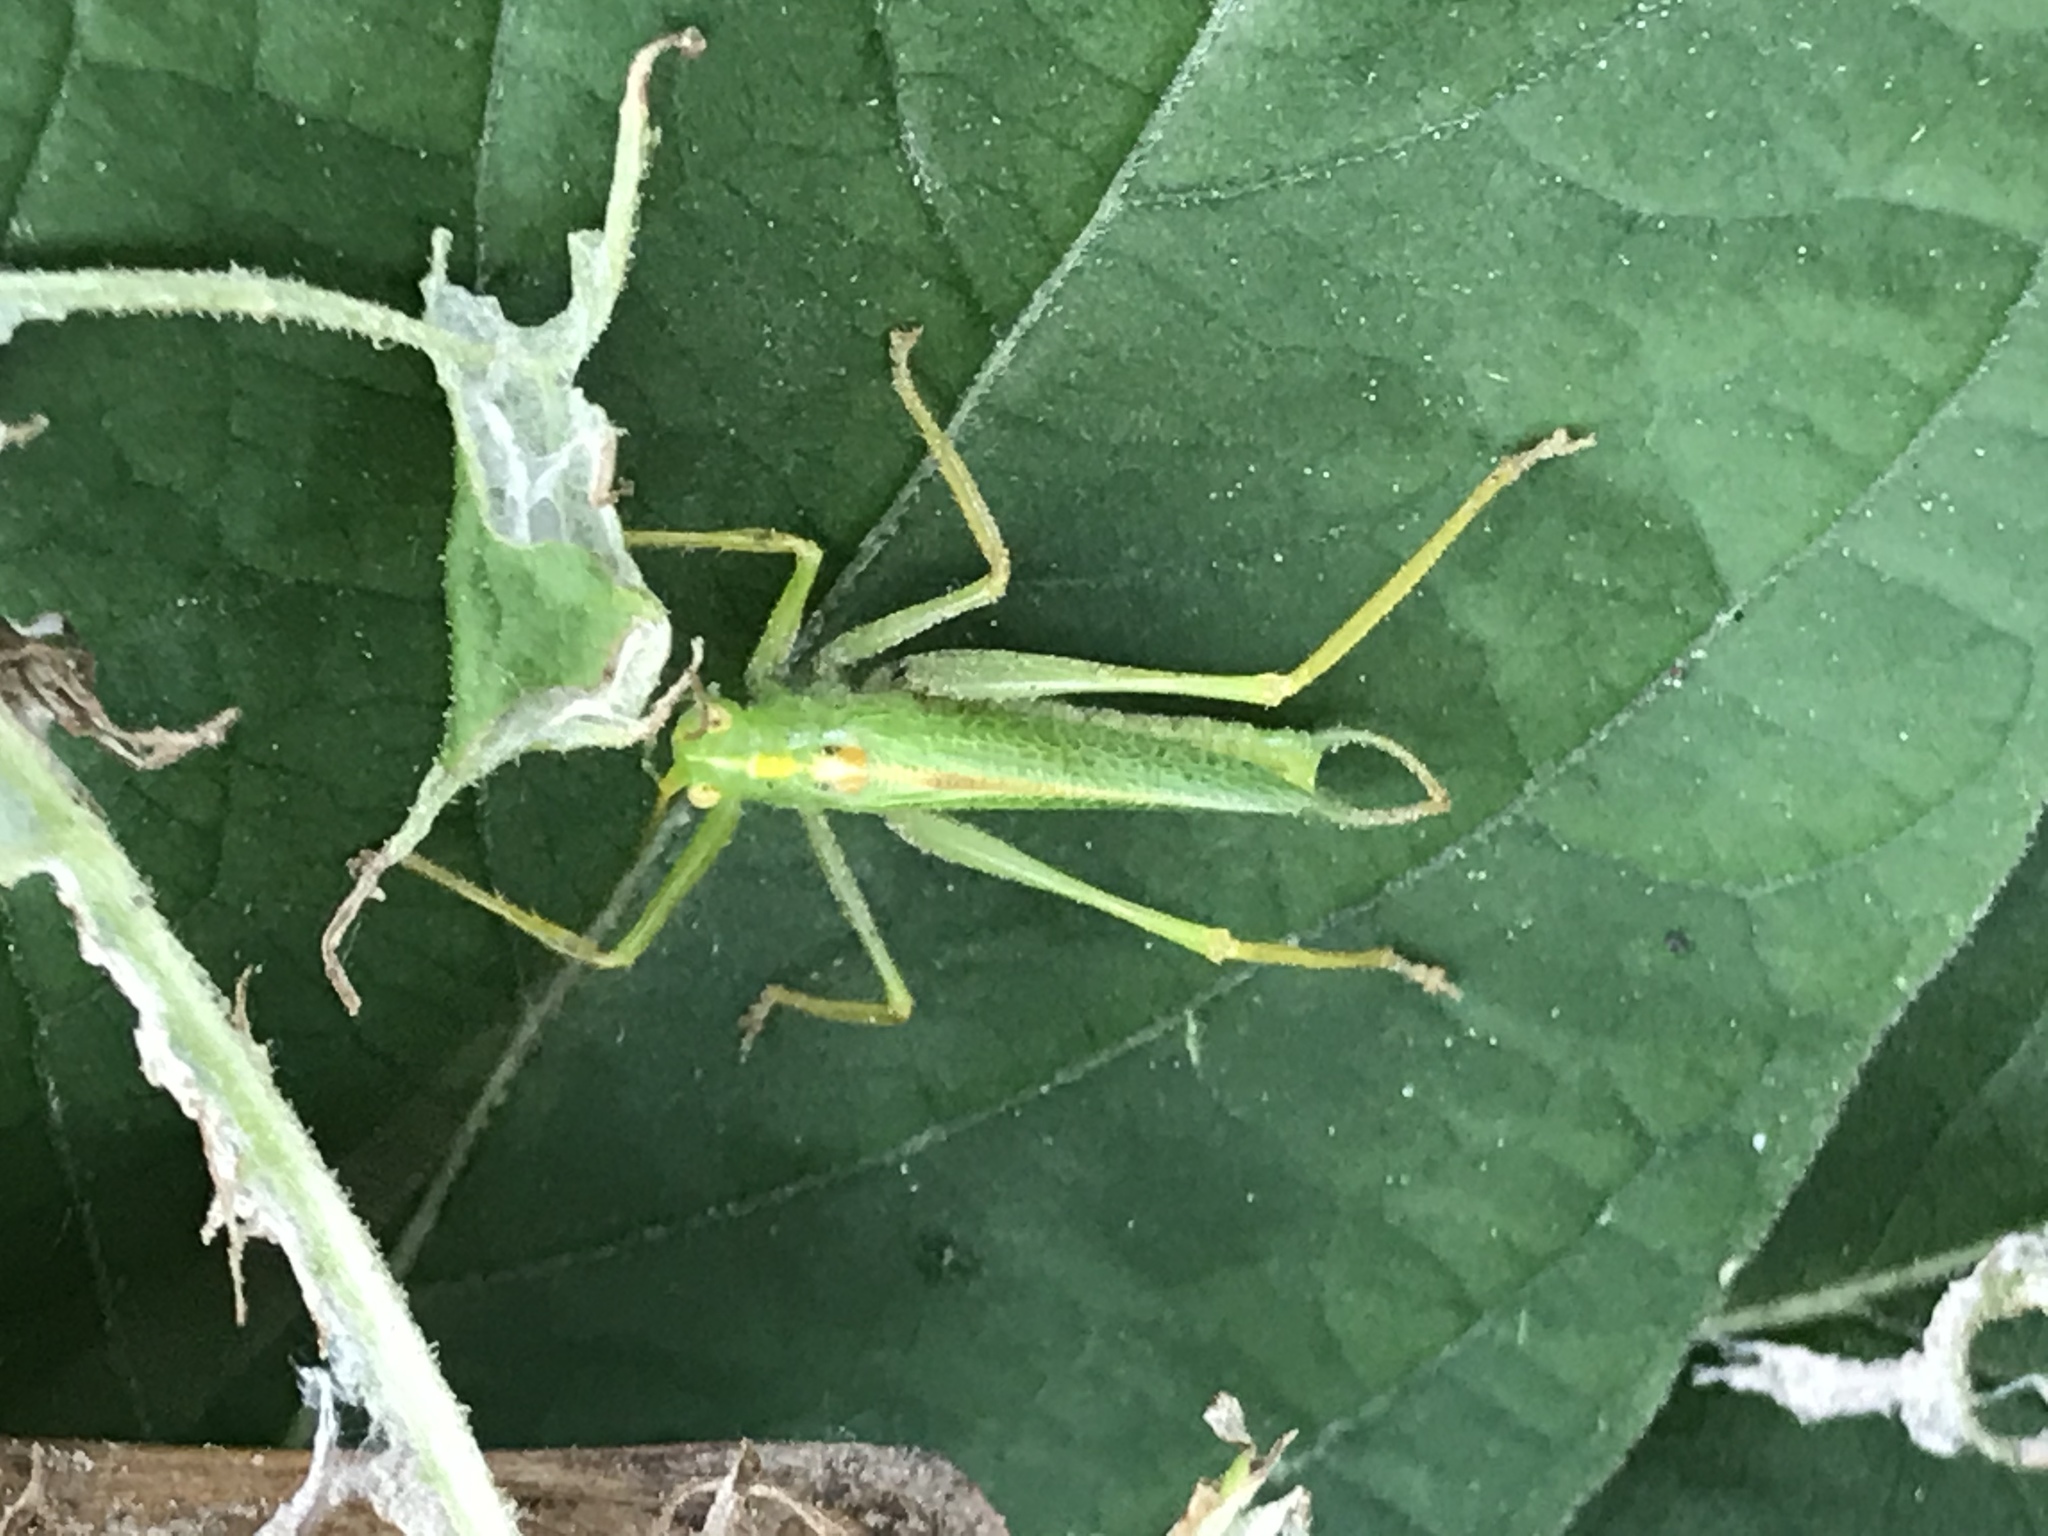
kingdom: Animalia
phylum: Arthropoda
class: Insecta
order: Orthoptera
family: Tettigoniidae
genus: Meconema
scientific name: Meconema thalassinum
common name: Oak bush-cricket
